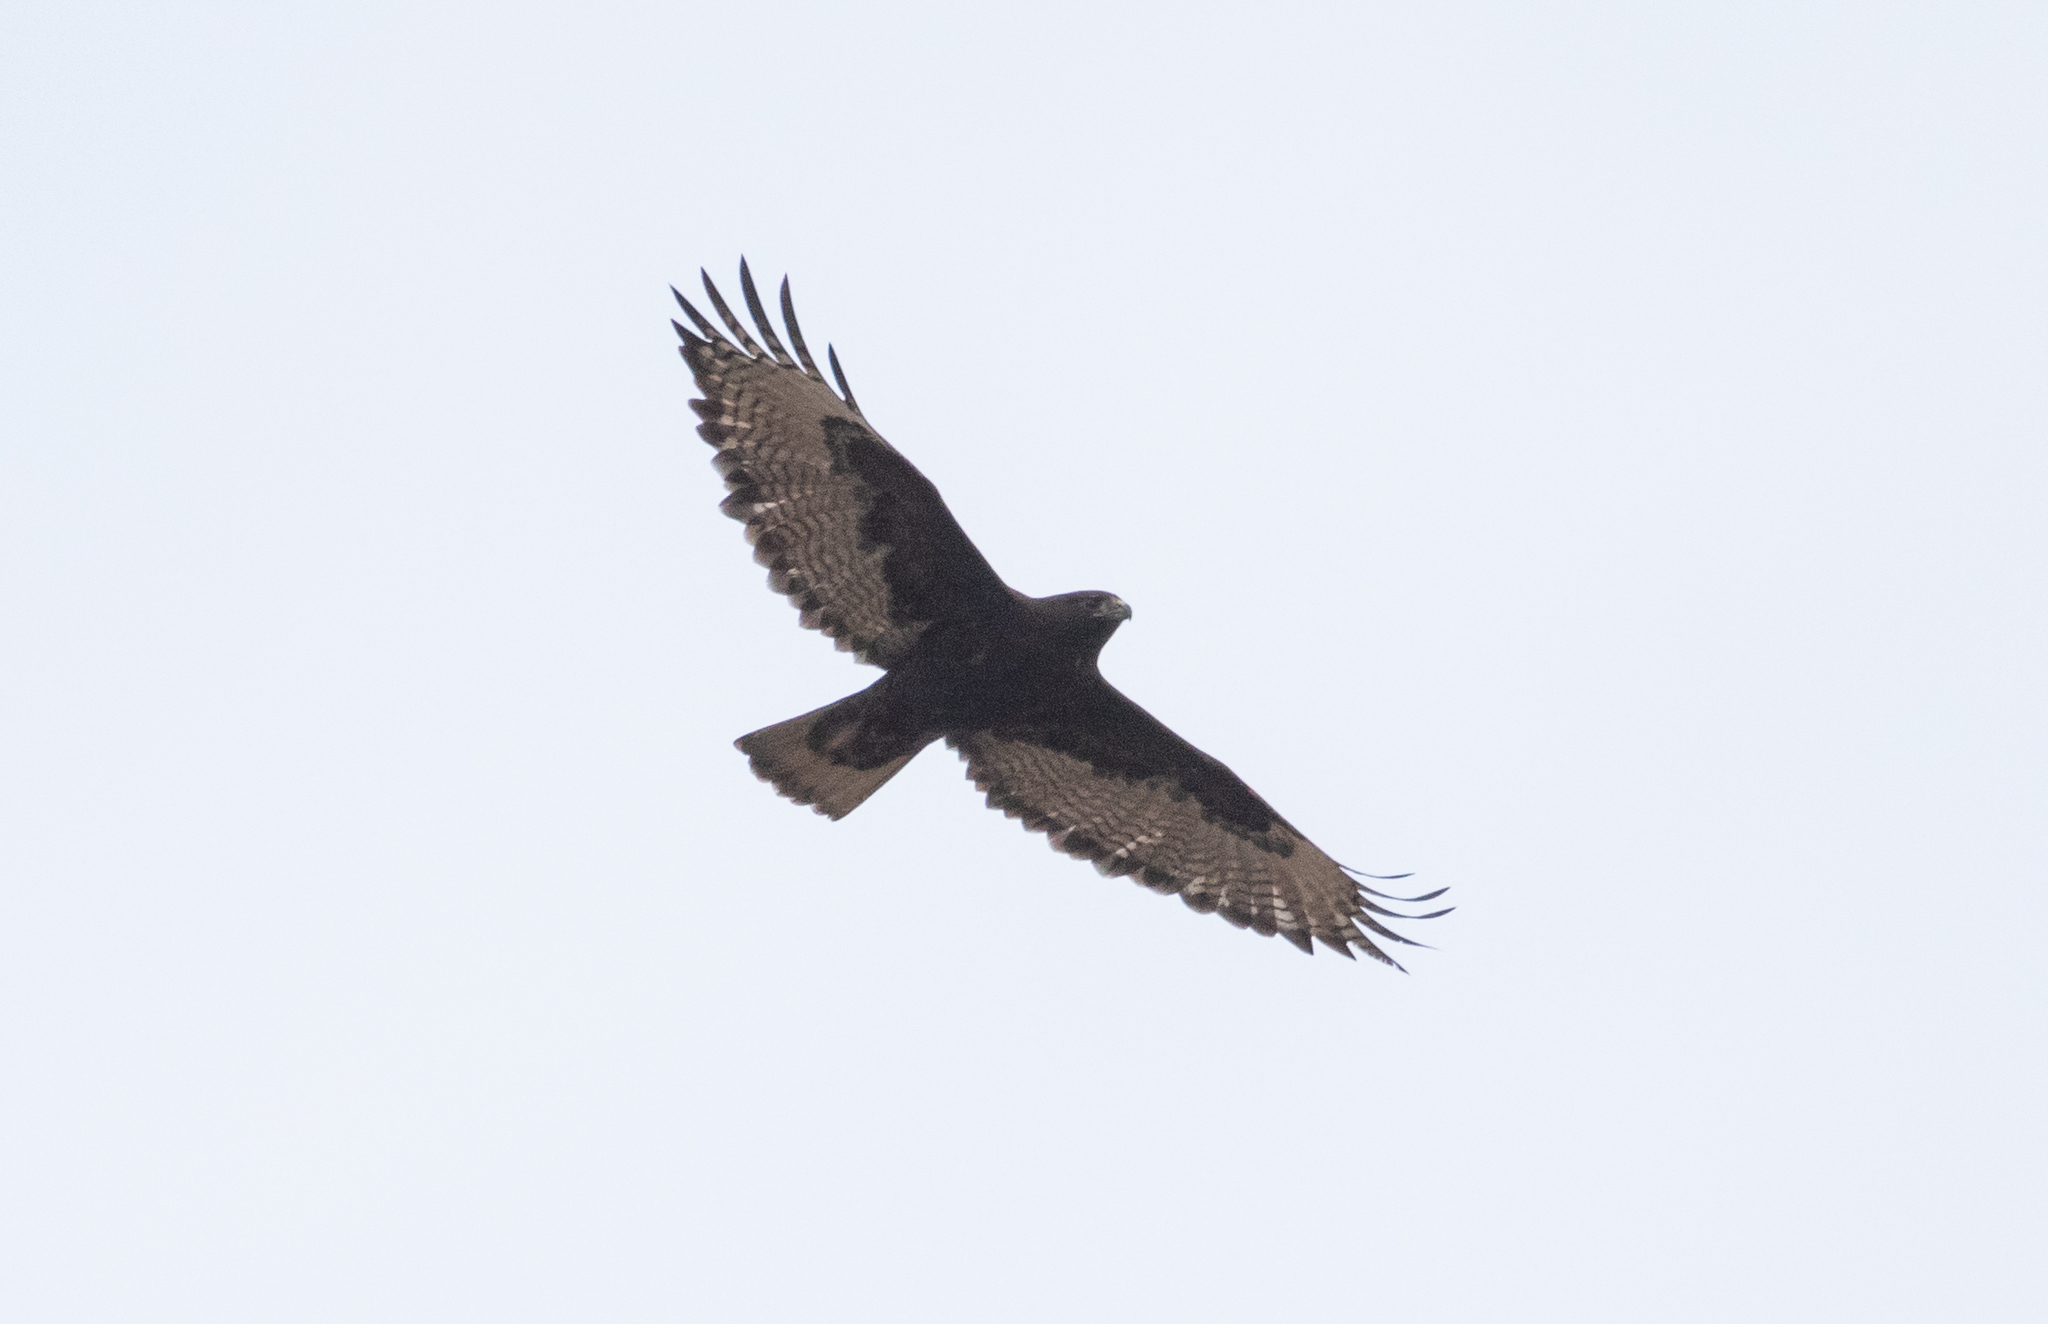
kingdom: Animalia
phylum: Chordata
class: Aves
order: Accipitriformes
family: Accipitridae
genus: Buteo
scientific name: Buteo jamaicensis
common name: Red-tailed hawk
